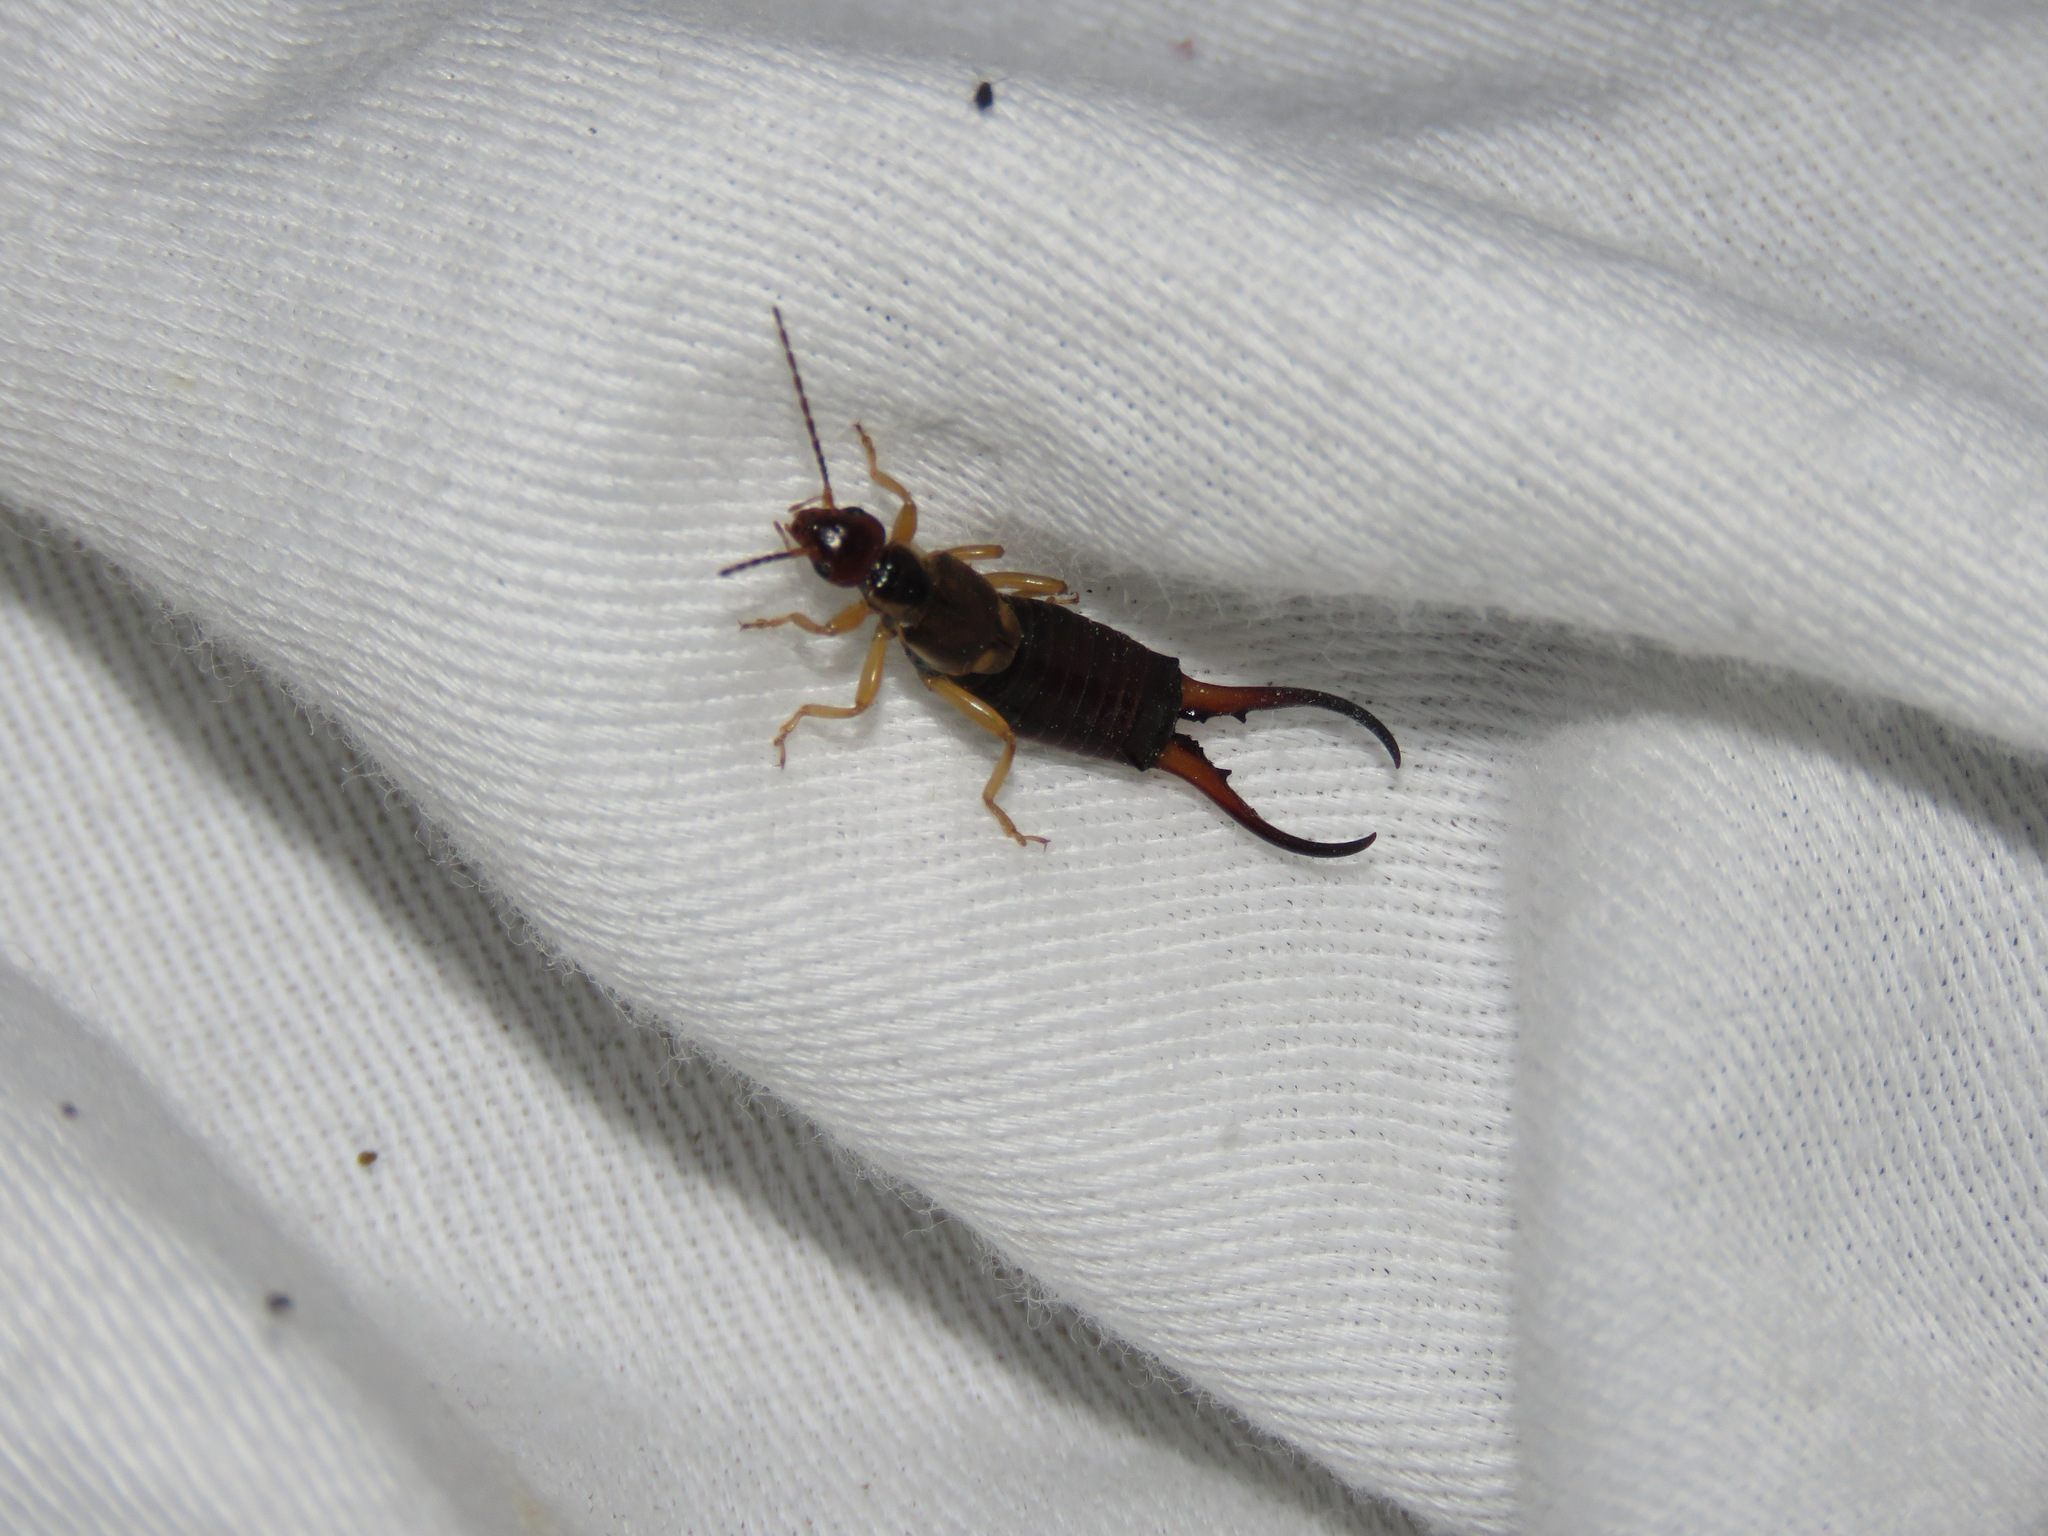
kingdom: Animalia
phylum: Arthropoda
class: Insecta
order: Dermaptera
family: Forficulidae
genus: Forficula
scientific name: Forficula
